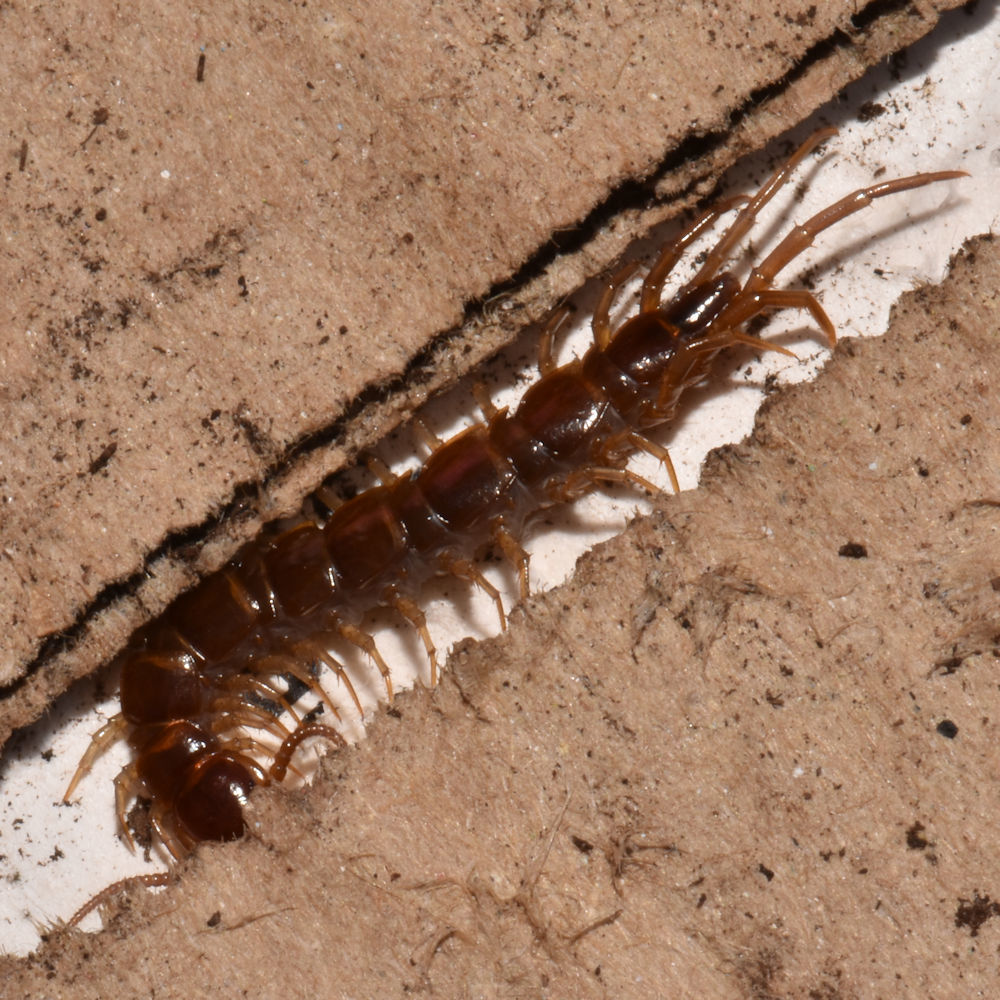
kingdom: Animalia
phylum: Arthropoda
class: Chilopoda
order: Lithobiomorpha
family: Lithobiidae
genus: Lithobius
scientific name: Lithobius forficatus
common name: Centipede
